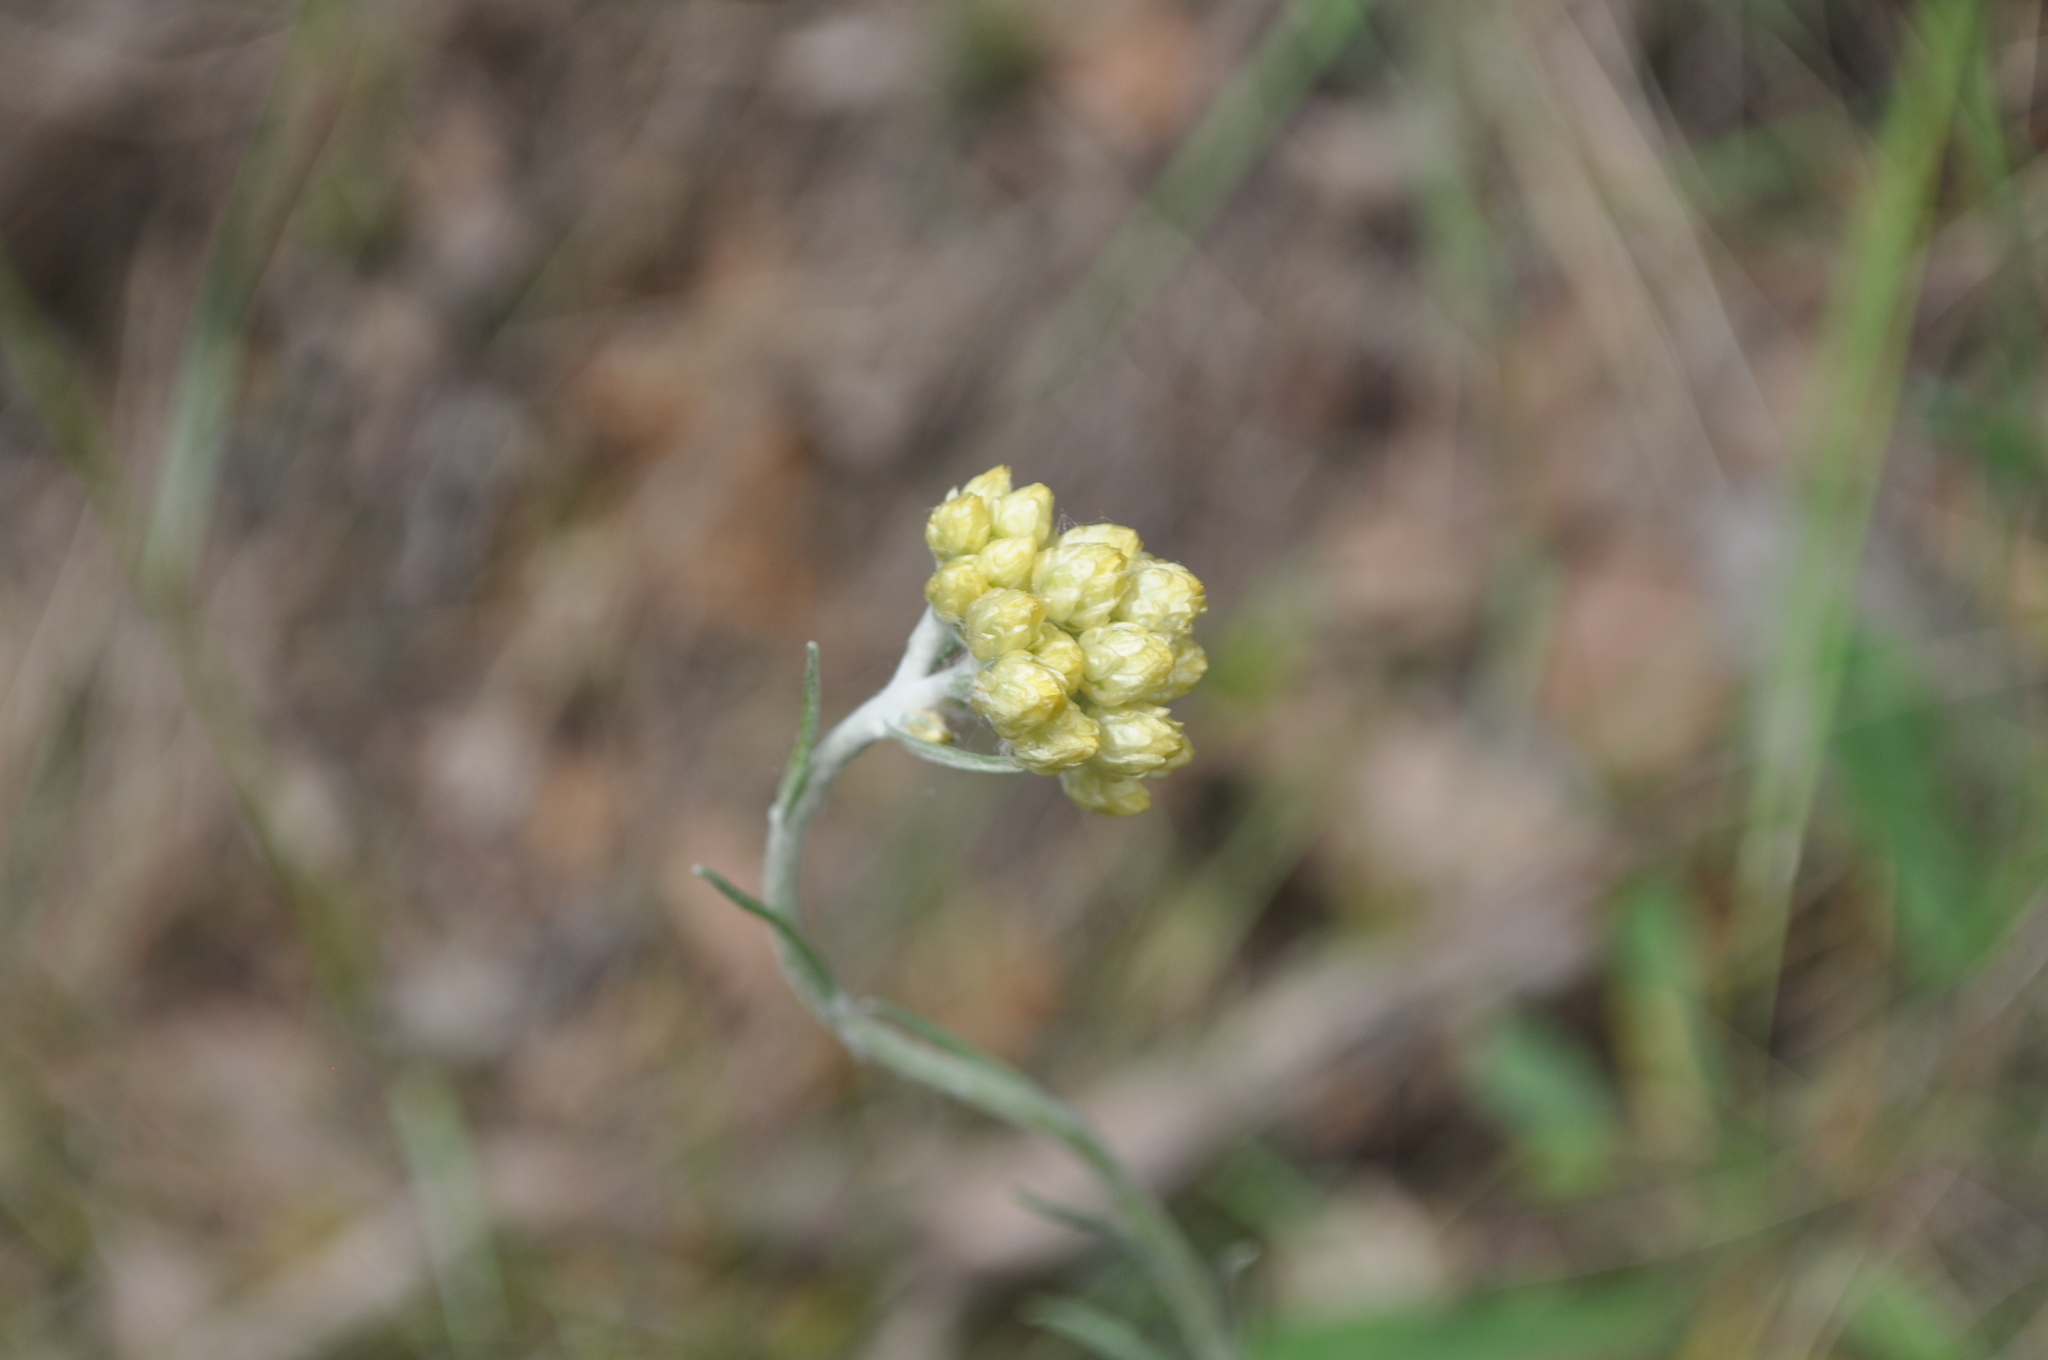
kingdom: Plantae
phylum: Tracheophyta
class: Magnoliopsida
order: Asterales
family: Asteraceae
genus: Helichrysum
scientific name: Helichrysum stoechas
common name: Goldilocks
